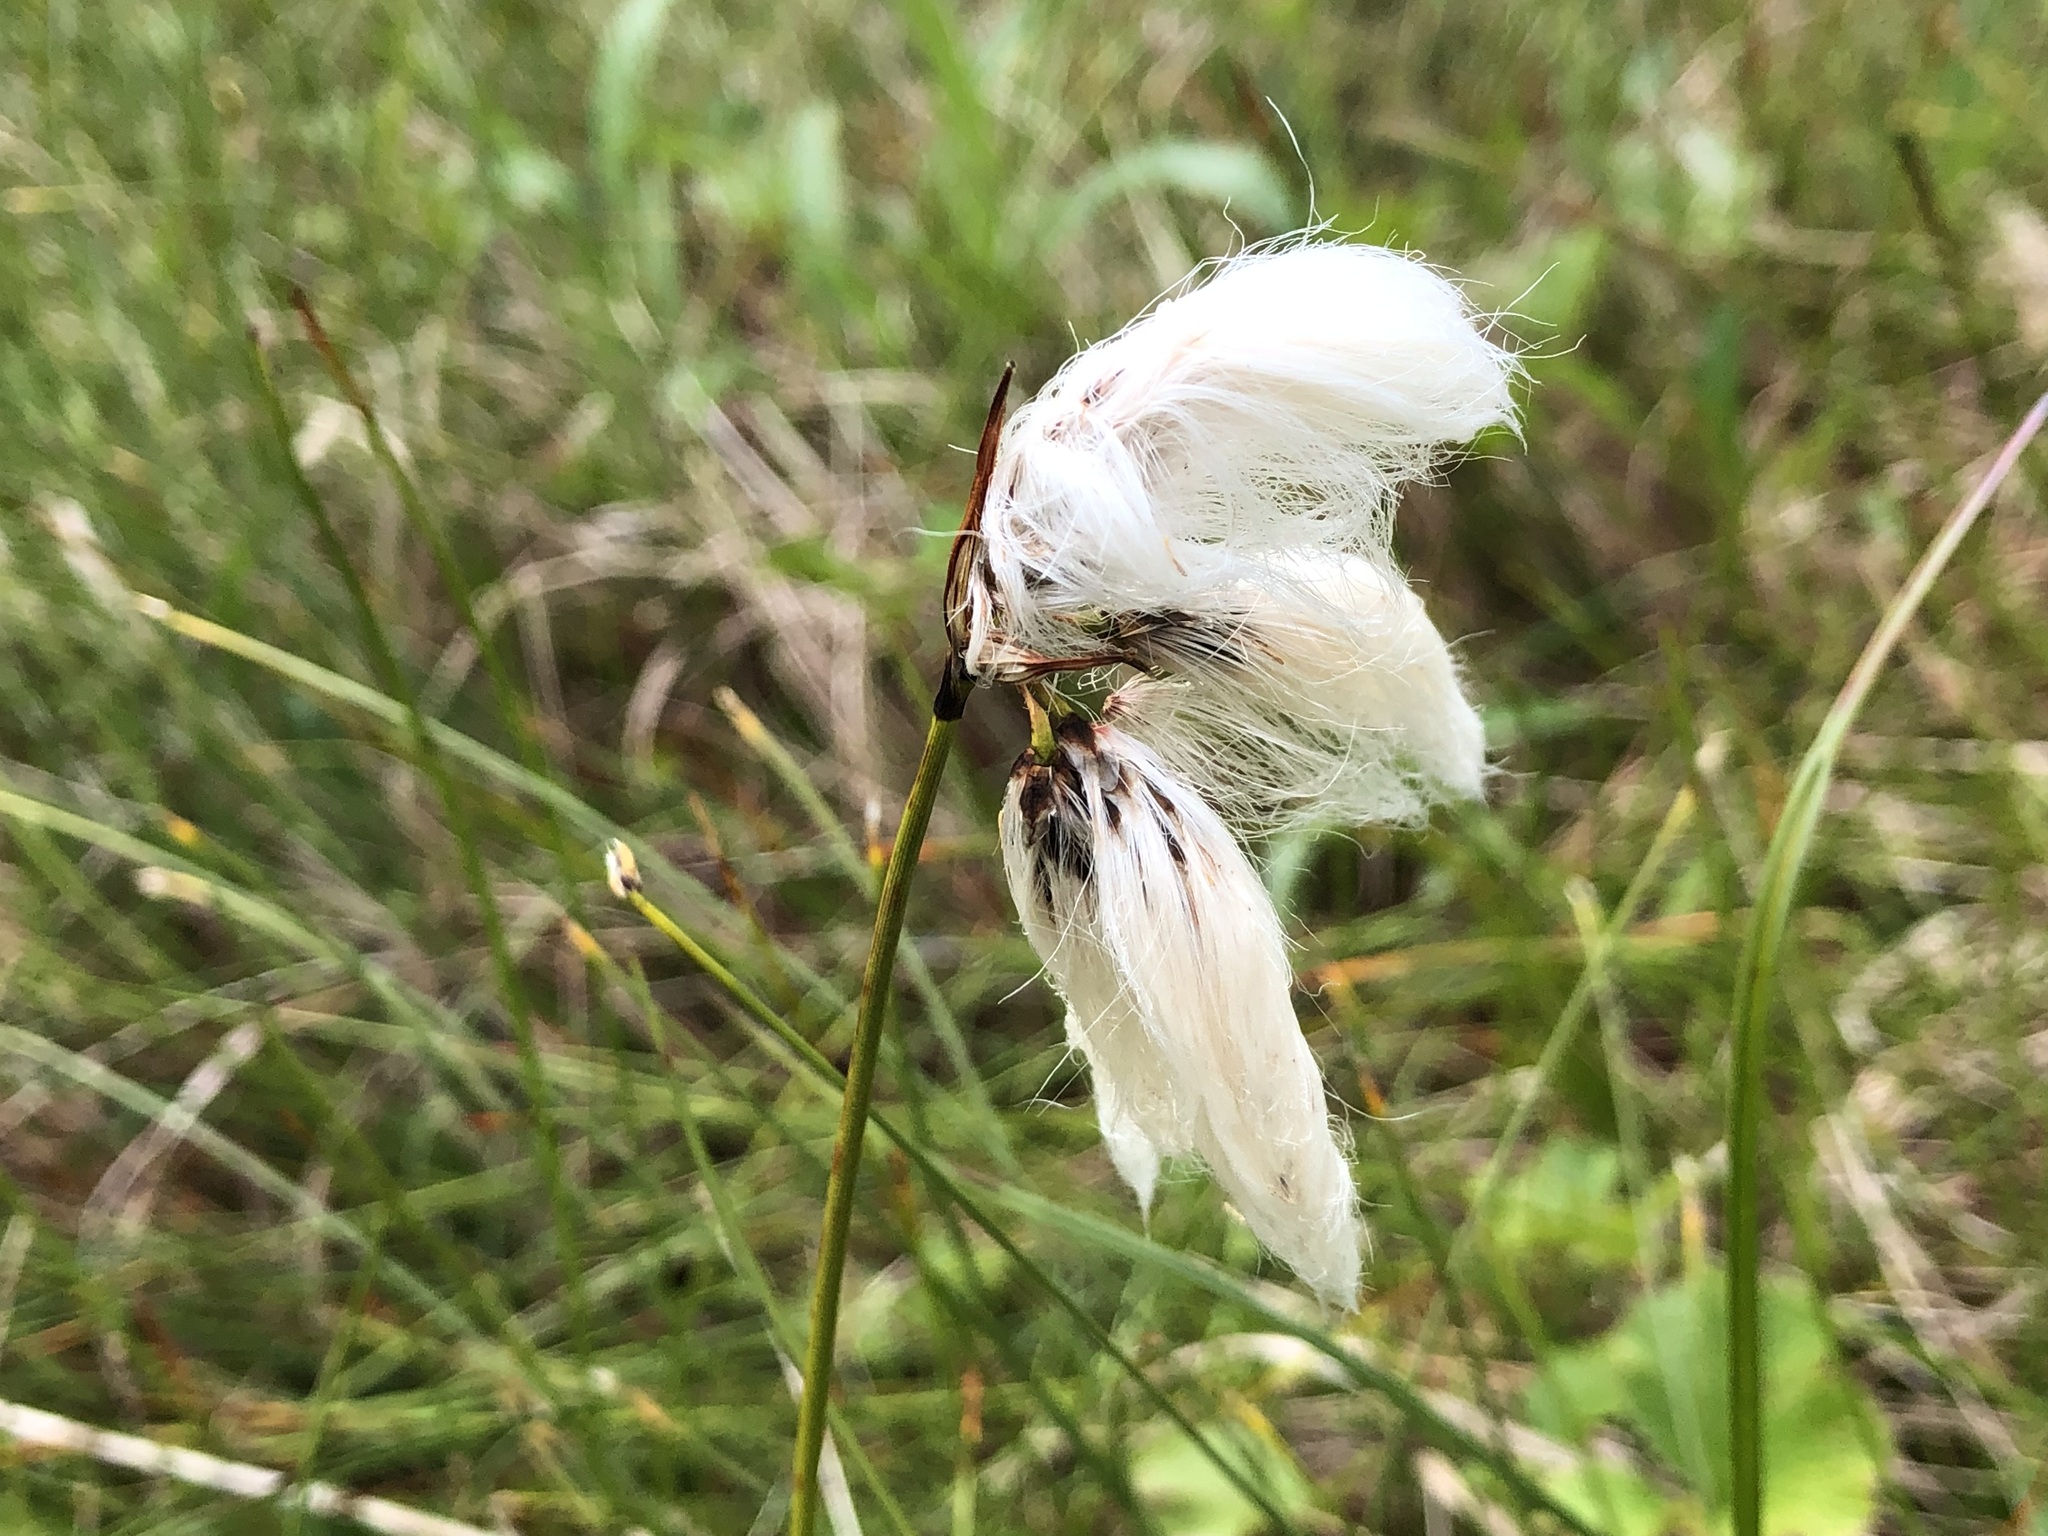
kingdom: Plantae
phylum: Tracheophyta
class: Liliopsida
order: Poales
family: Cyperaceae
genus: Eriophorum
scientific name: Eriophorum angustifolium
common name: Common cottongrass
